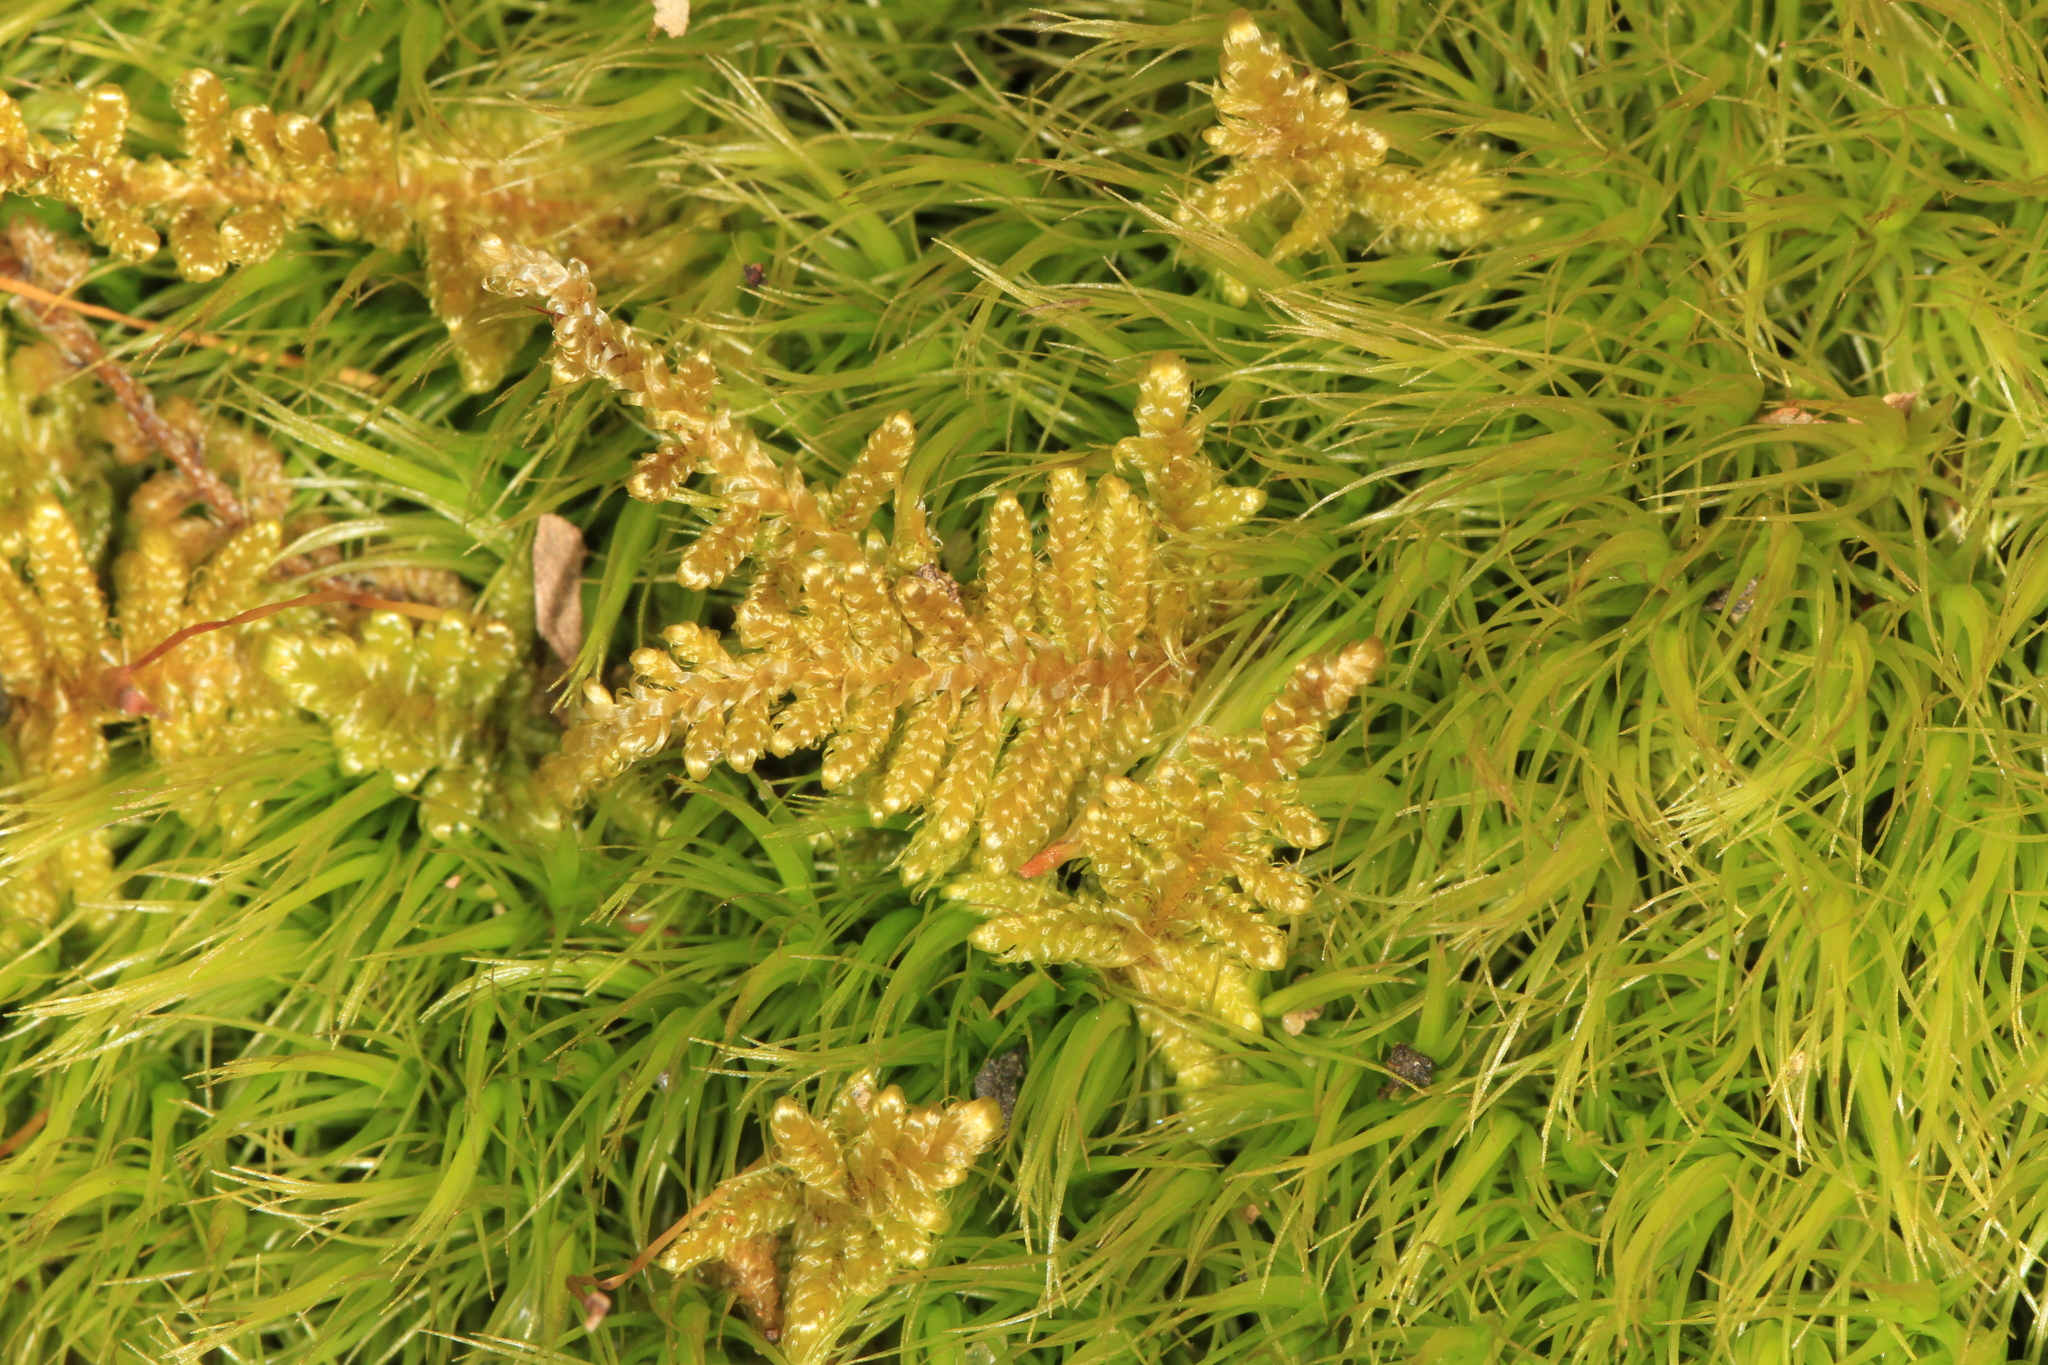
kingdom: Plantae
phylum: Bryophyta
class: Bryopsida
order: Hypnales
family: Callicladiaceae
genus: Callicladium
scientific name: Callicladium imponens
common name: Brocade moss
